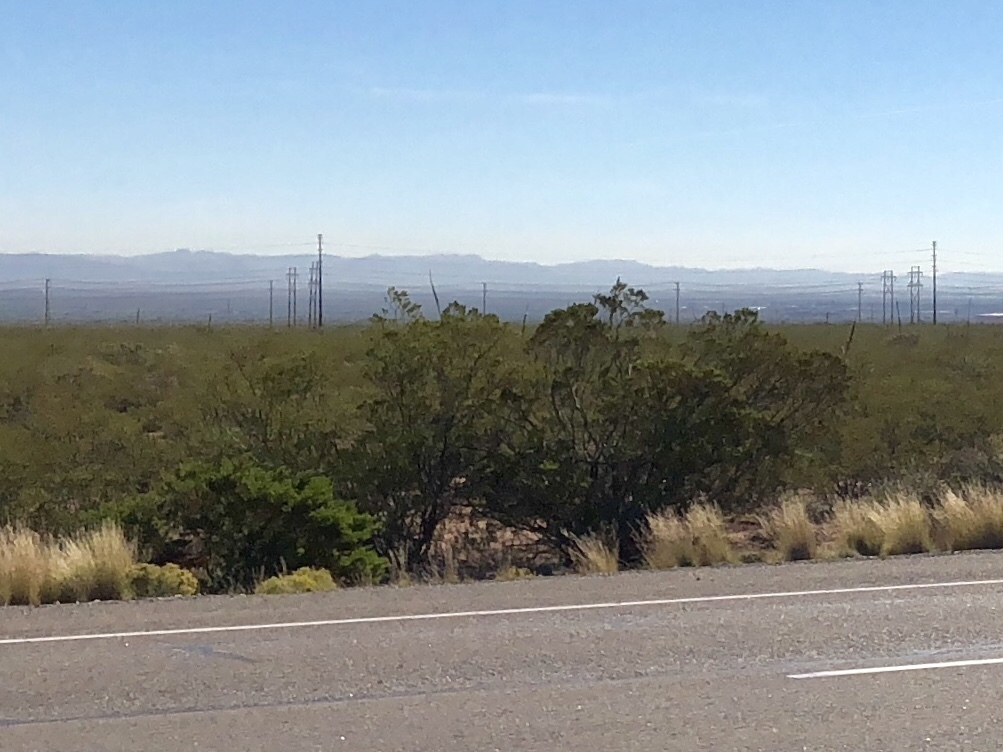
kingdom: Plantae
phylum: Tracheophyta
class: Magnoliopsida
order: Zygophyllales
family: Zygophyllaceae
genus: Larrea
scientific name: Larrea tridentata
